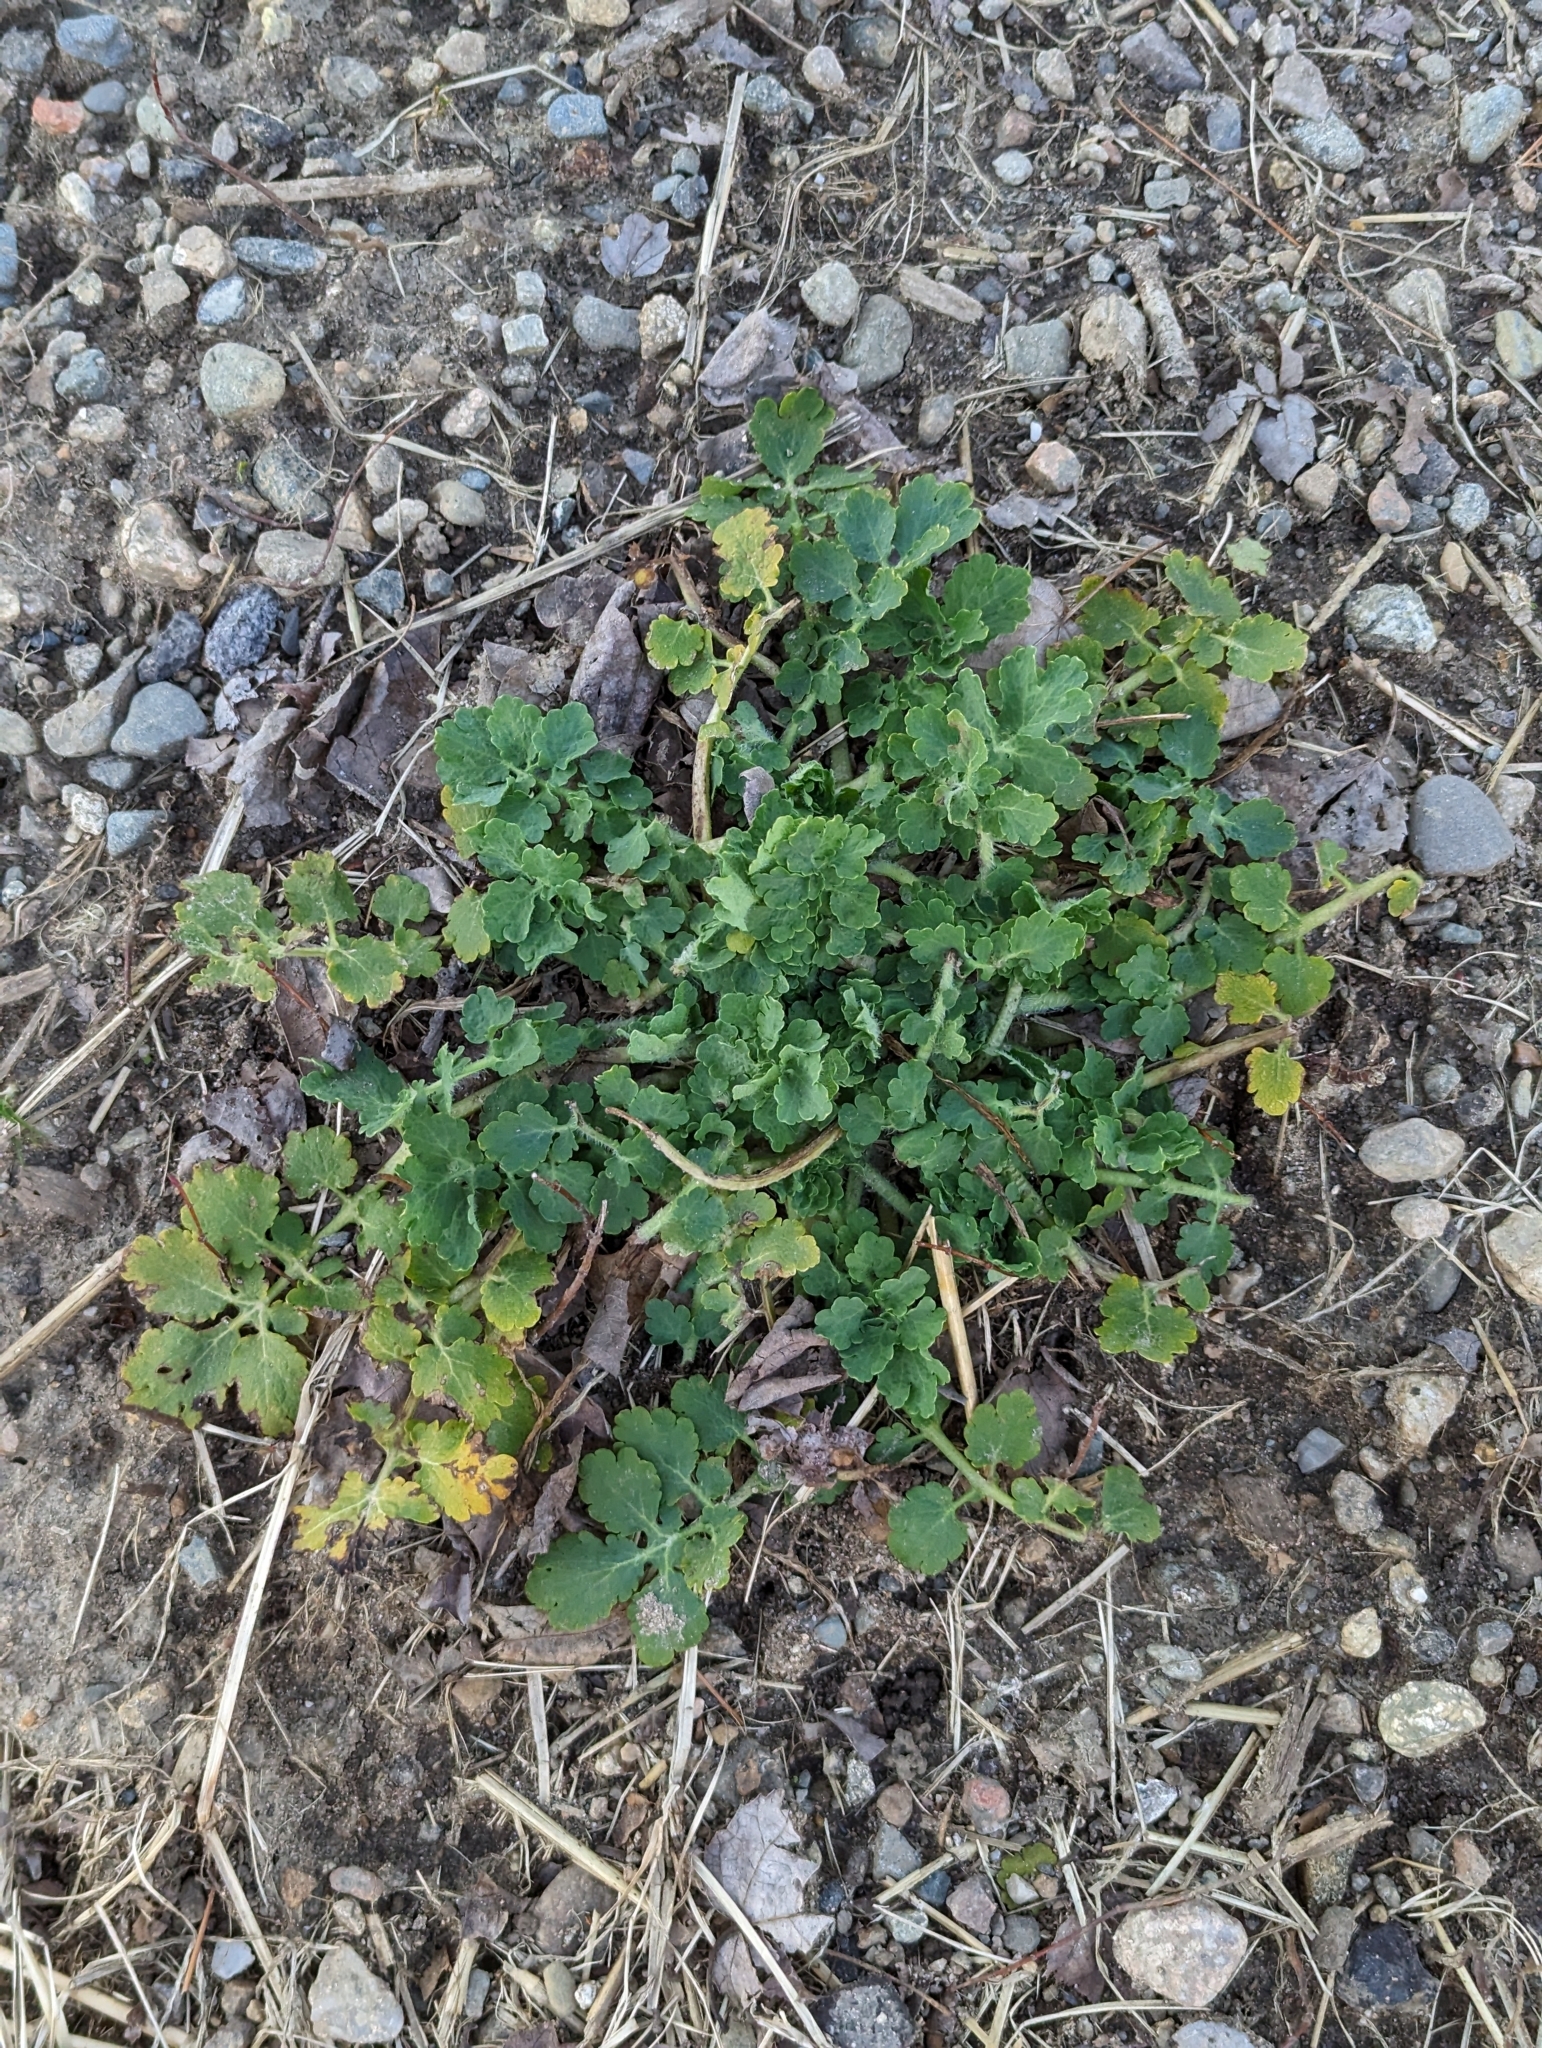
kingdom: Plantae
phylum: Tracheophyta
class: Magnoliopsida
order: Ranunculales
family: Papaveraceae
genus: Chelidonium
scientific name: Chelidonium majus
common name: Greater celandine
